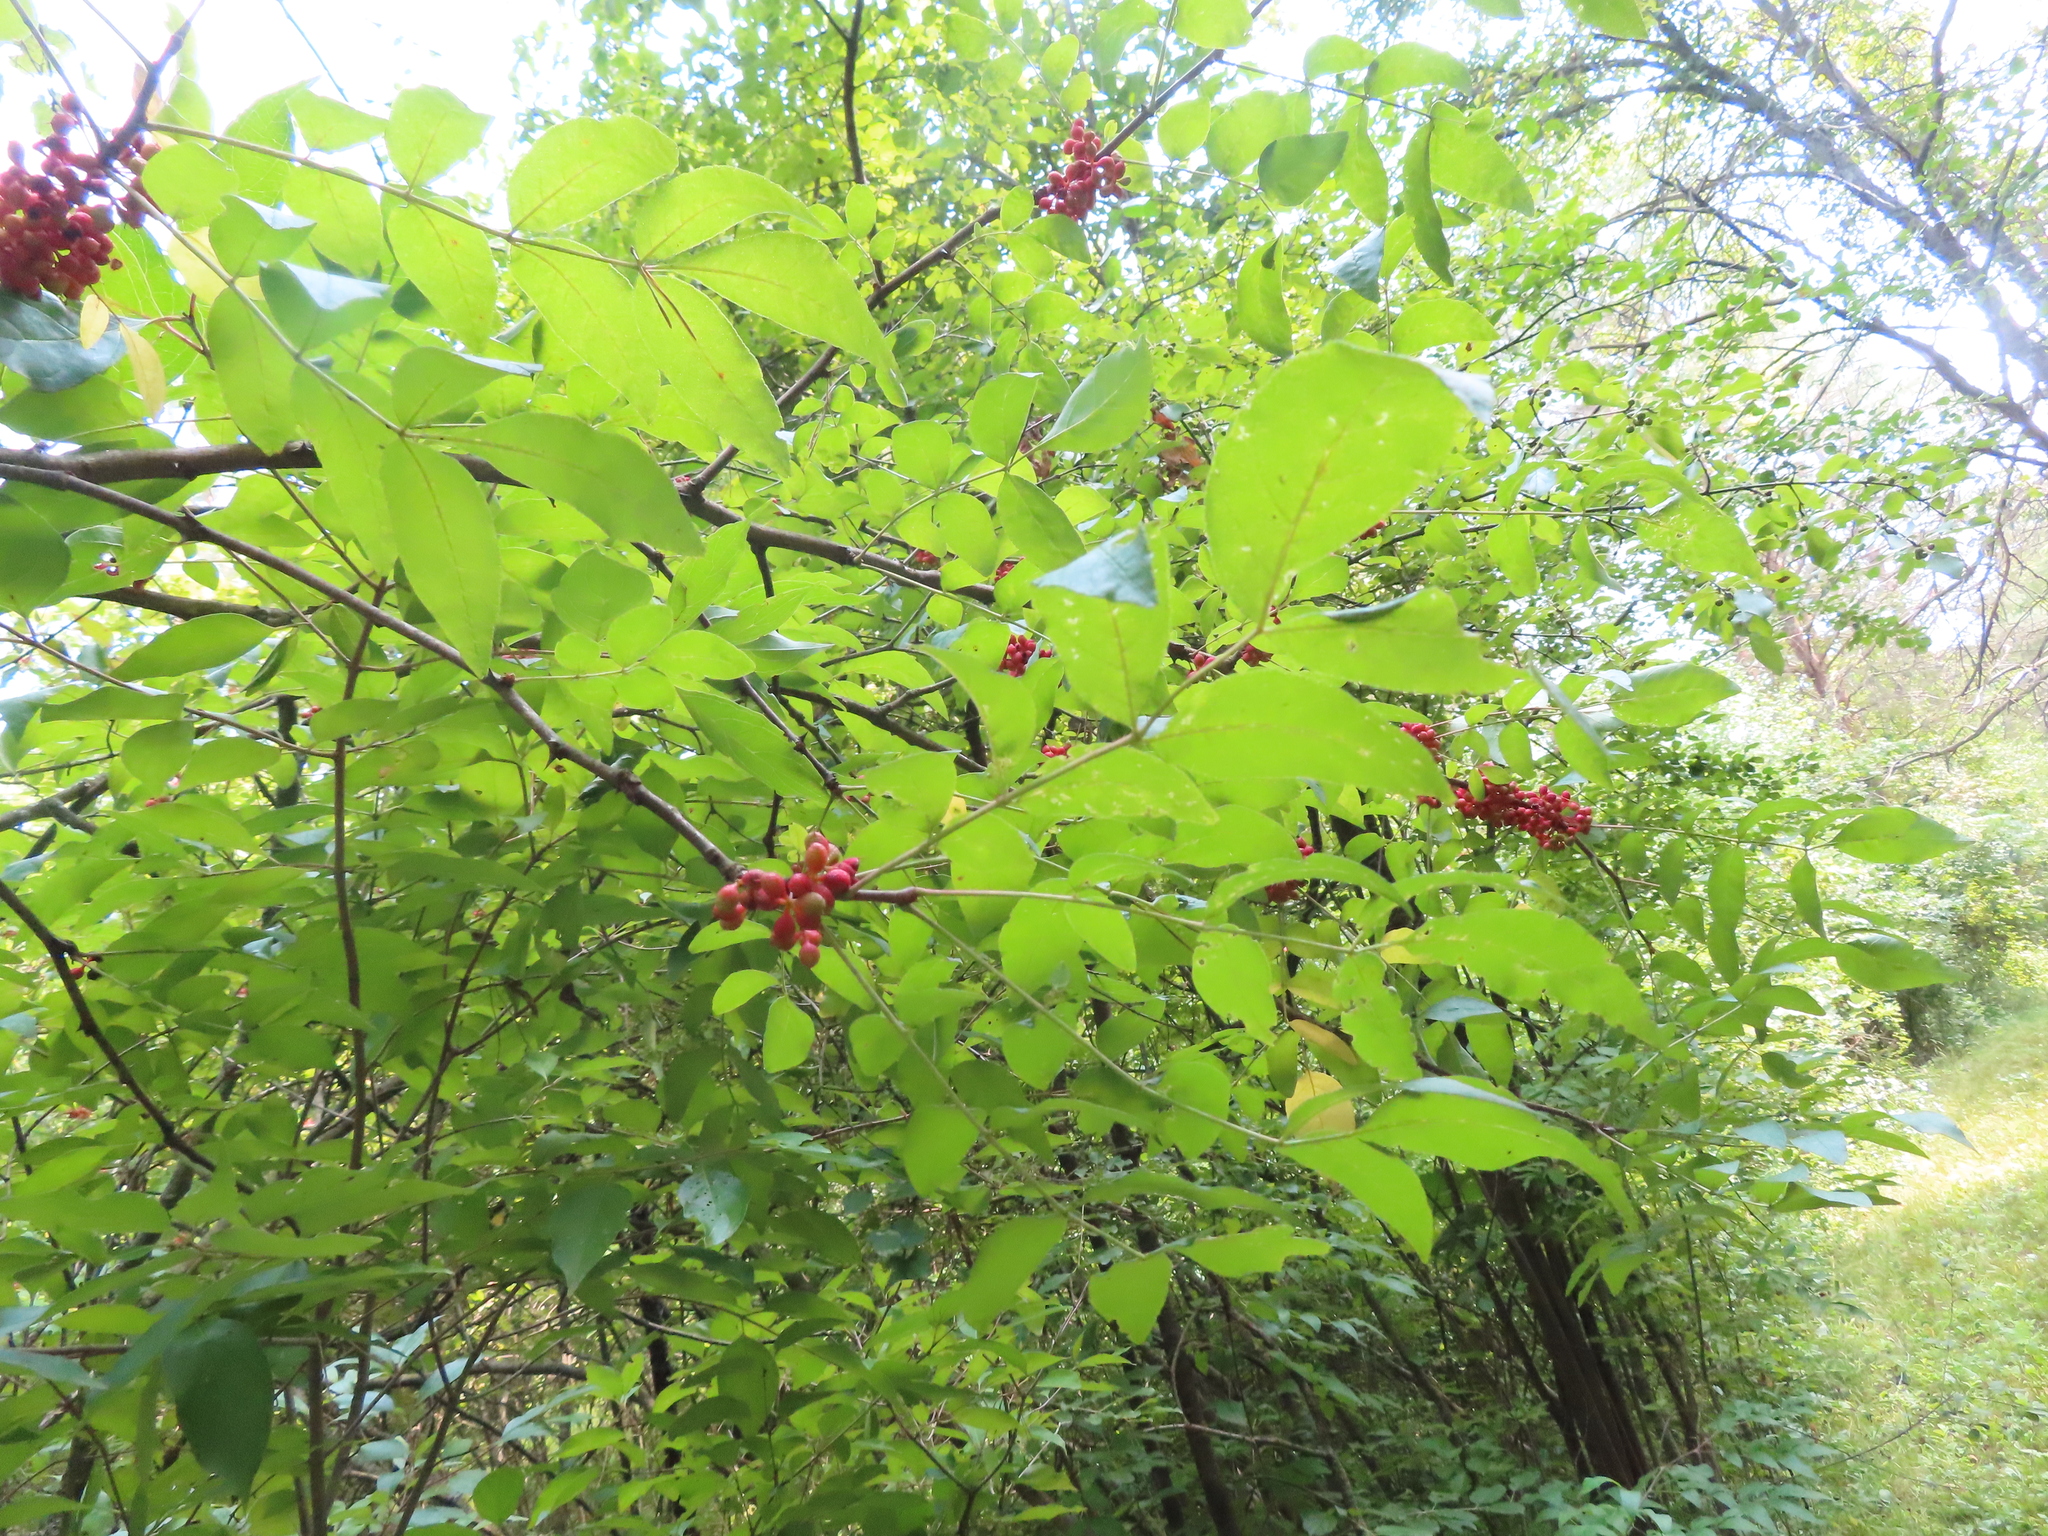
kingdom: Plantae
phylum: Tracheophyta
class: Magnoliopsida
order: Sapindales
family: Rutaceae
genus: Zanthoxylum
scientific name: Zanthoxylum americanum
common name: Northern prickly-ash
